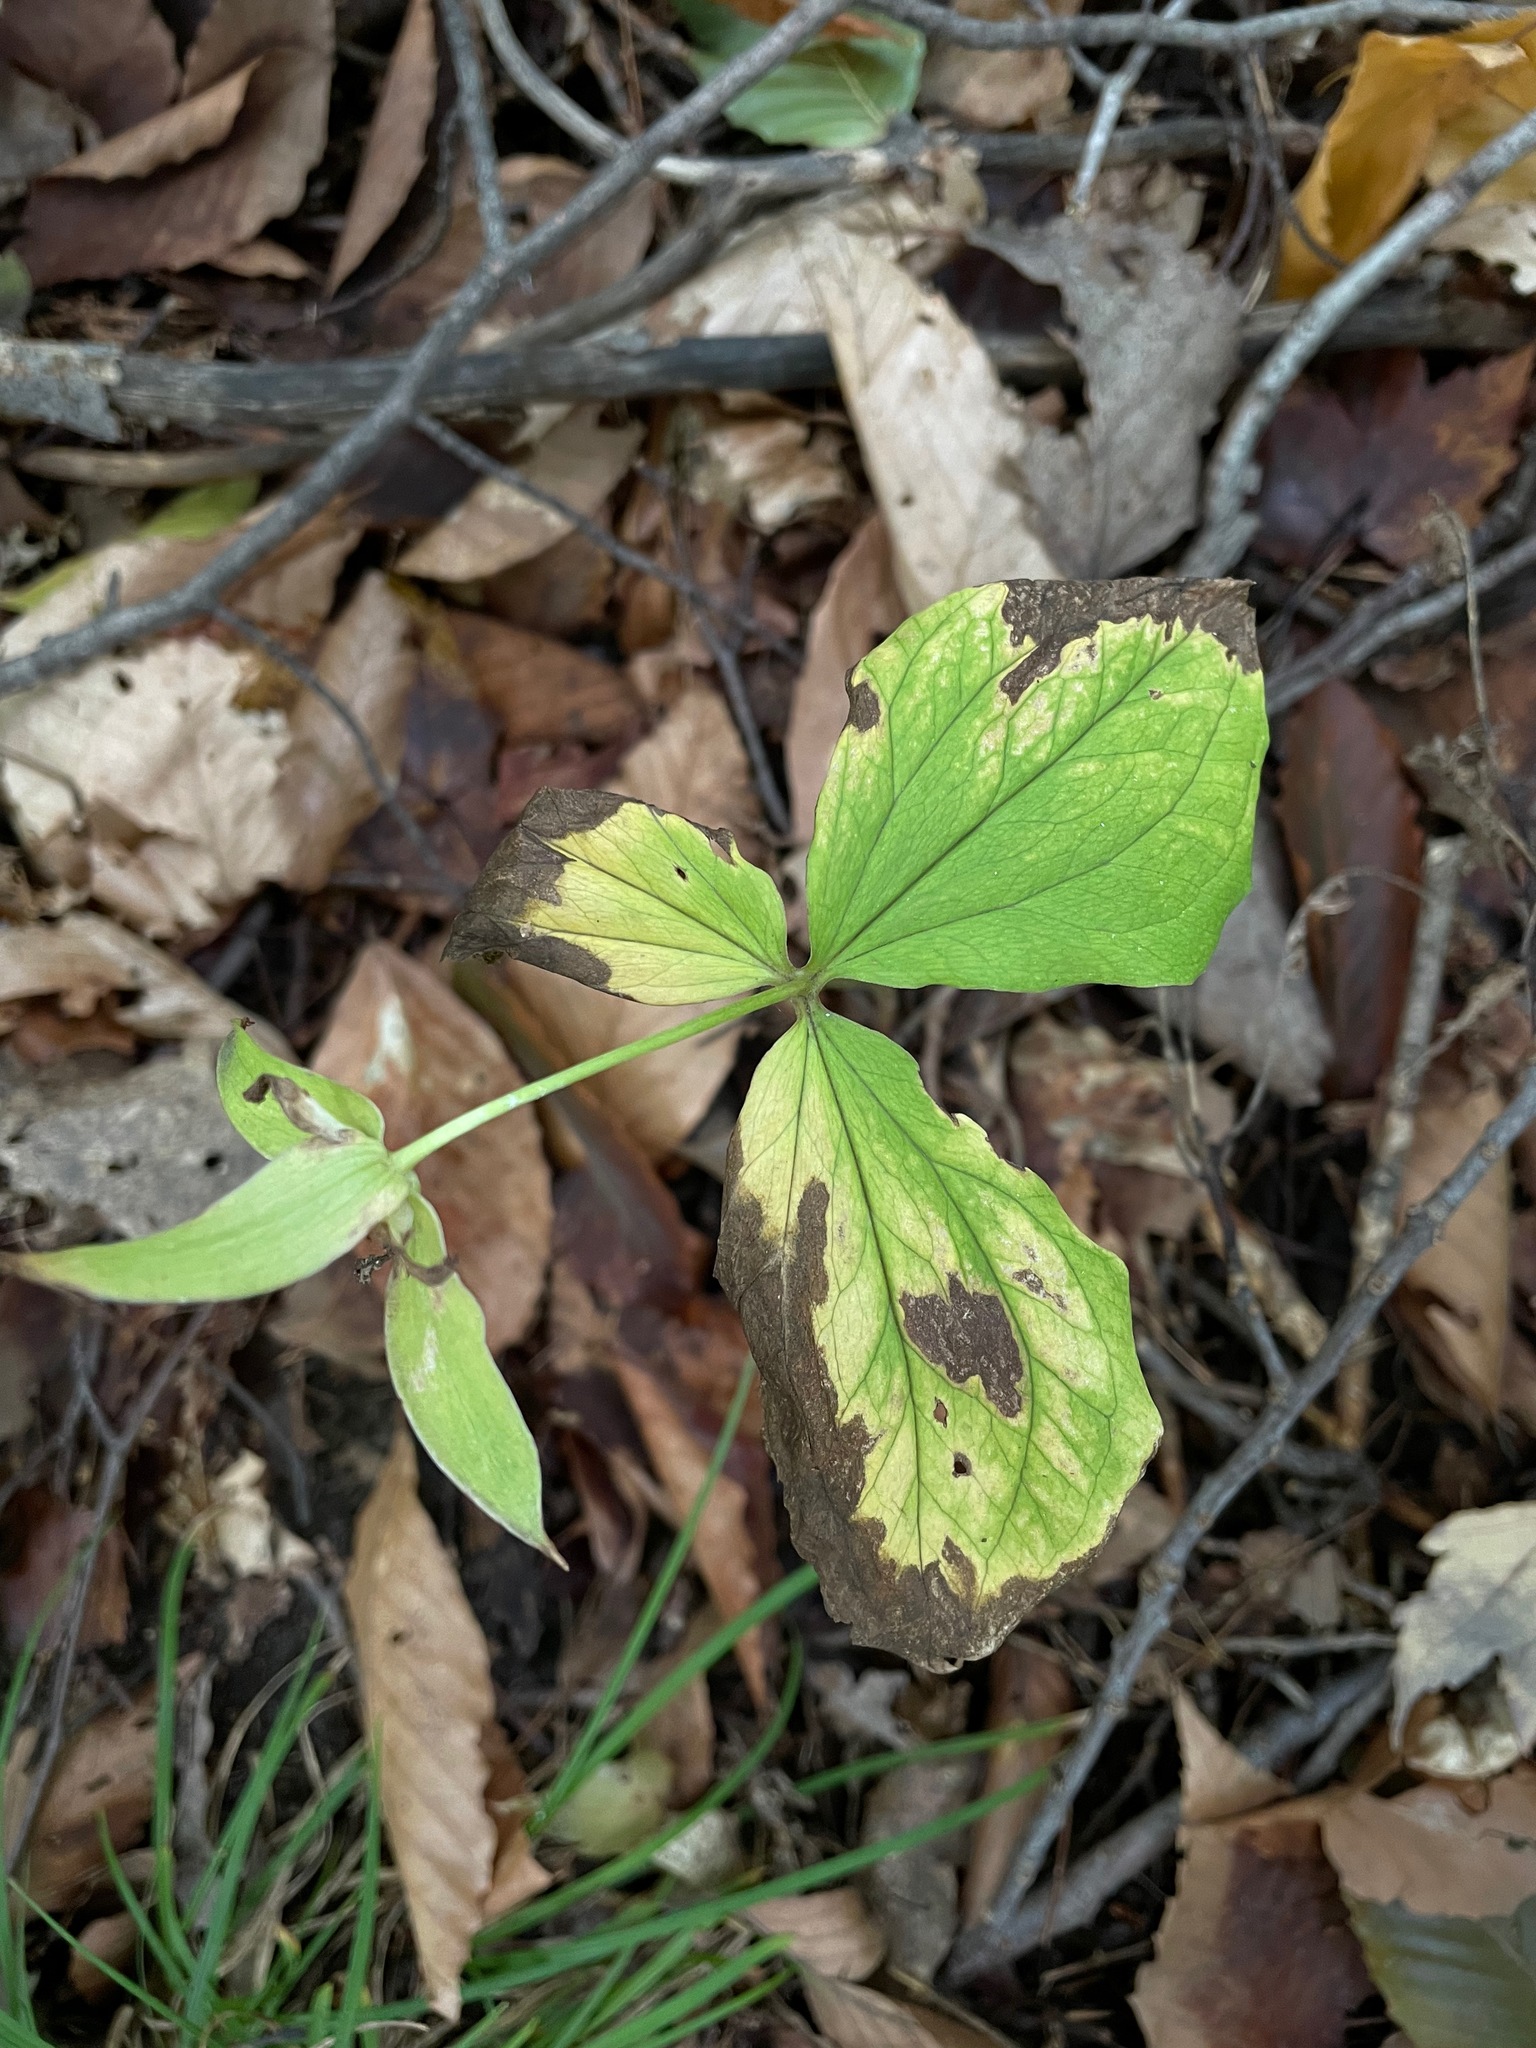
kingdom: Plantae
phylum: Tracheophyta
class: Liliopsida
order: Liliales
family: Melanthiaceae
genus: Trillium
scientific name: Trillium grandiflorum
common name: Great white trillium
